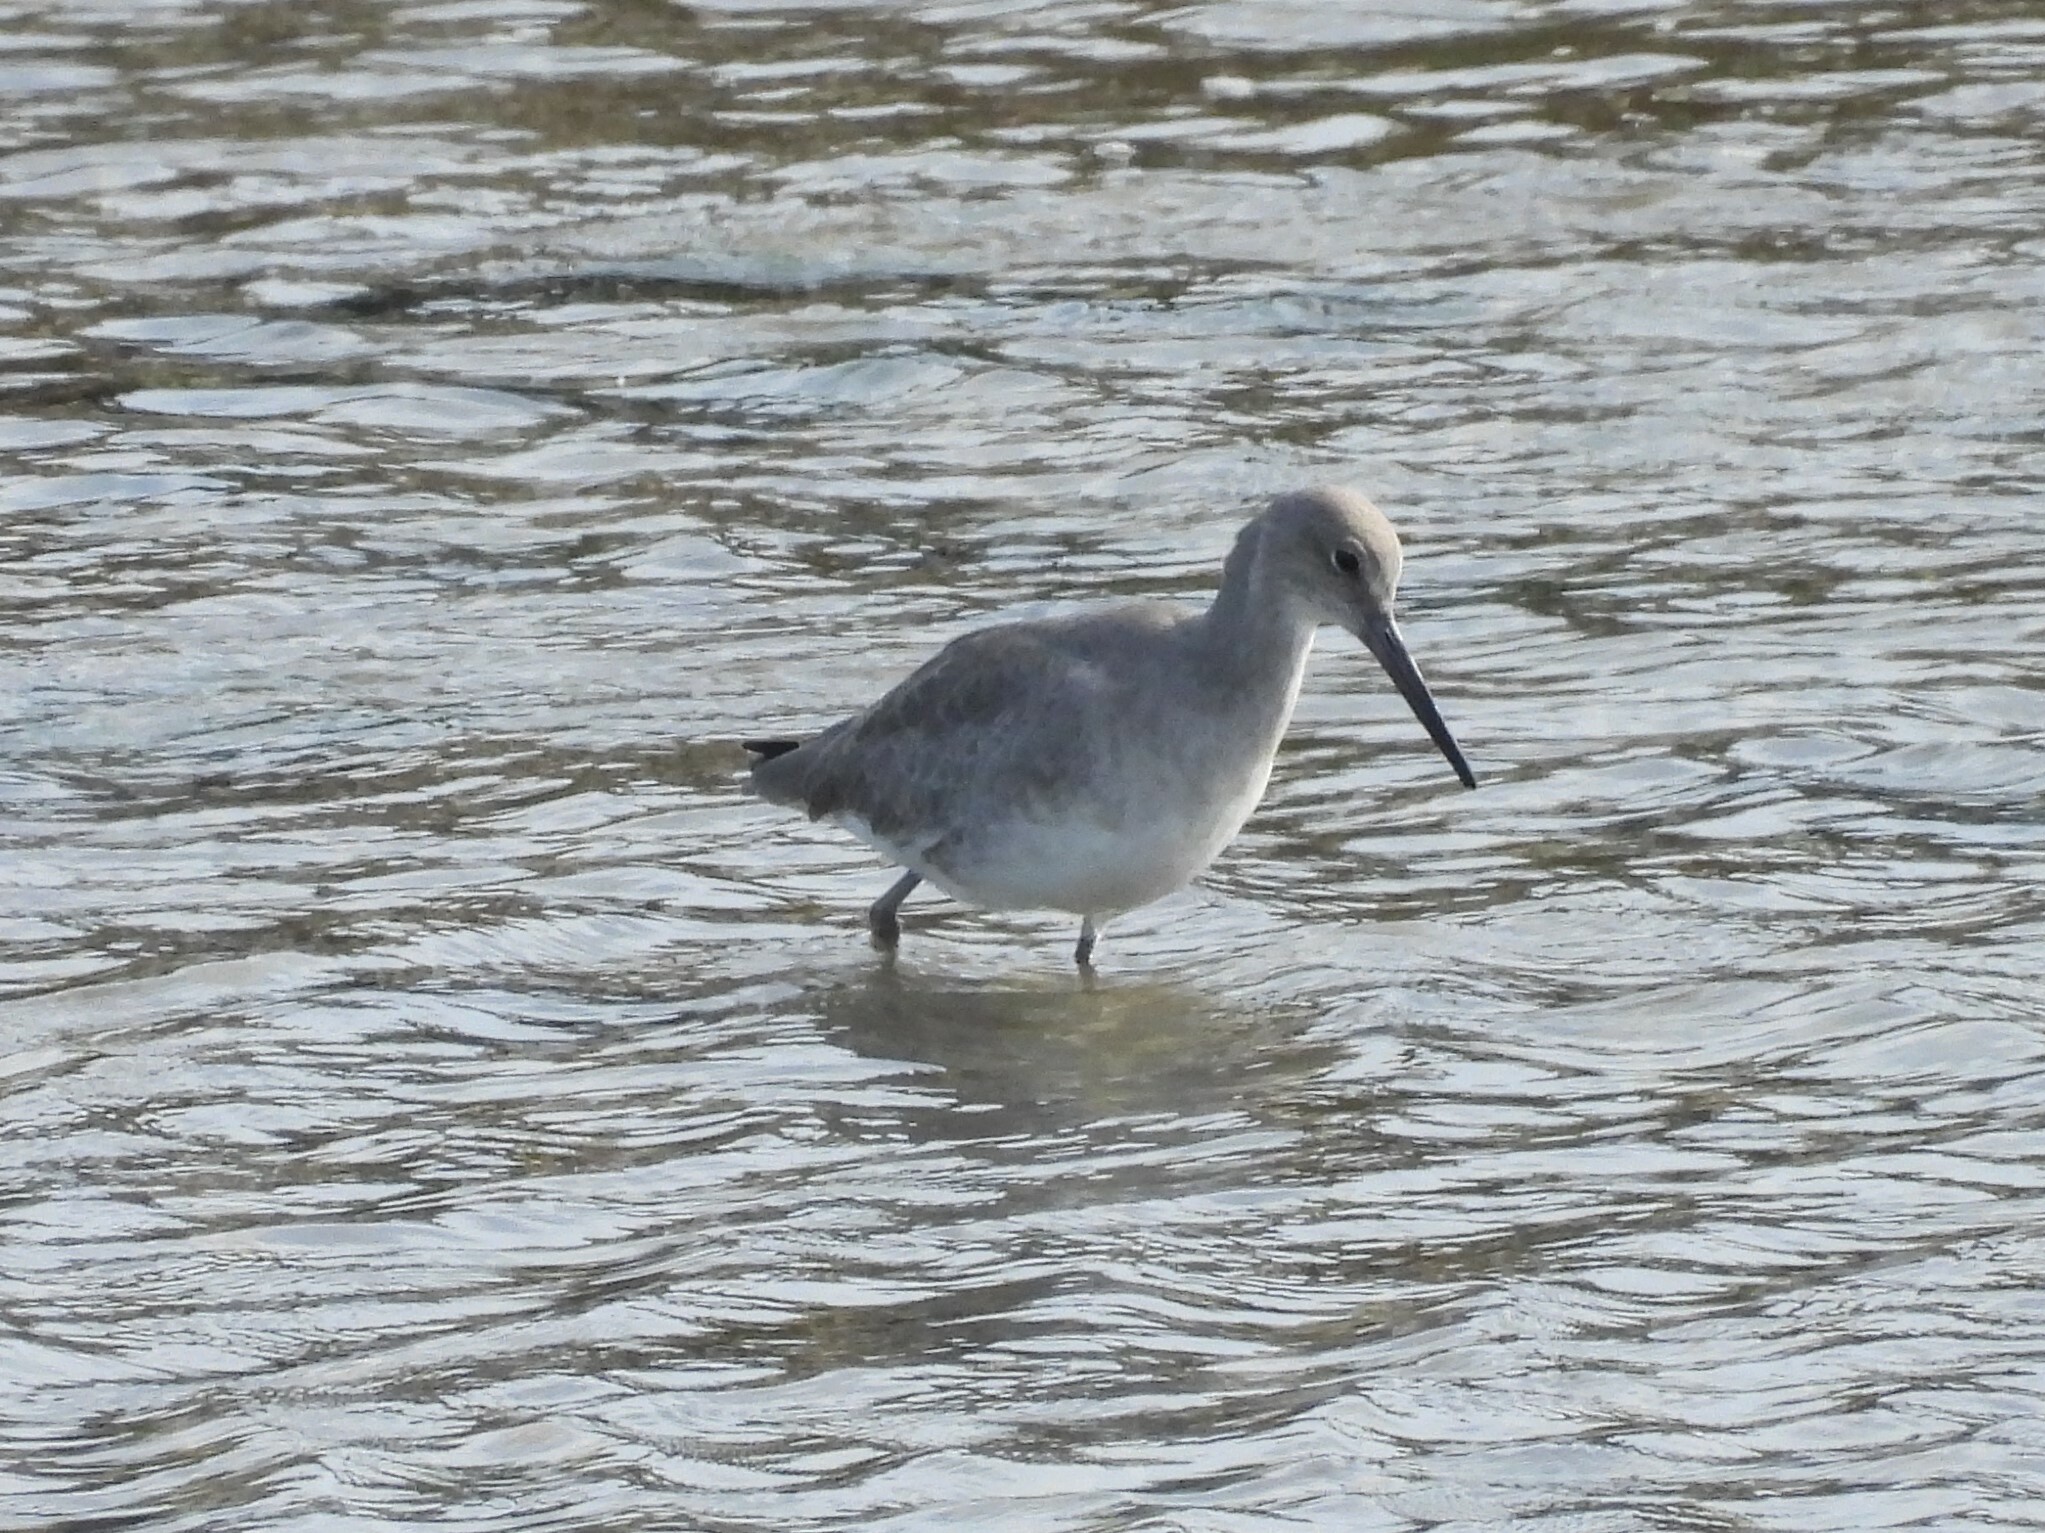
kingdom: Animalia
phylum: Chordata
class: Aves
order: Charadriiformes
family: Scolopacidae
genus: Tringa
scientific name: Tringa semipalmata
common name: Willet
